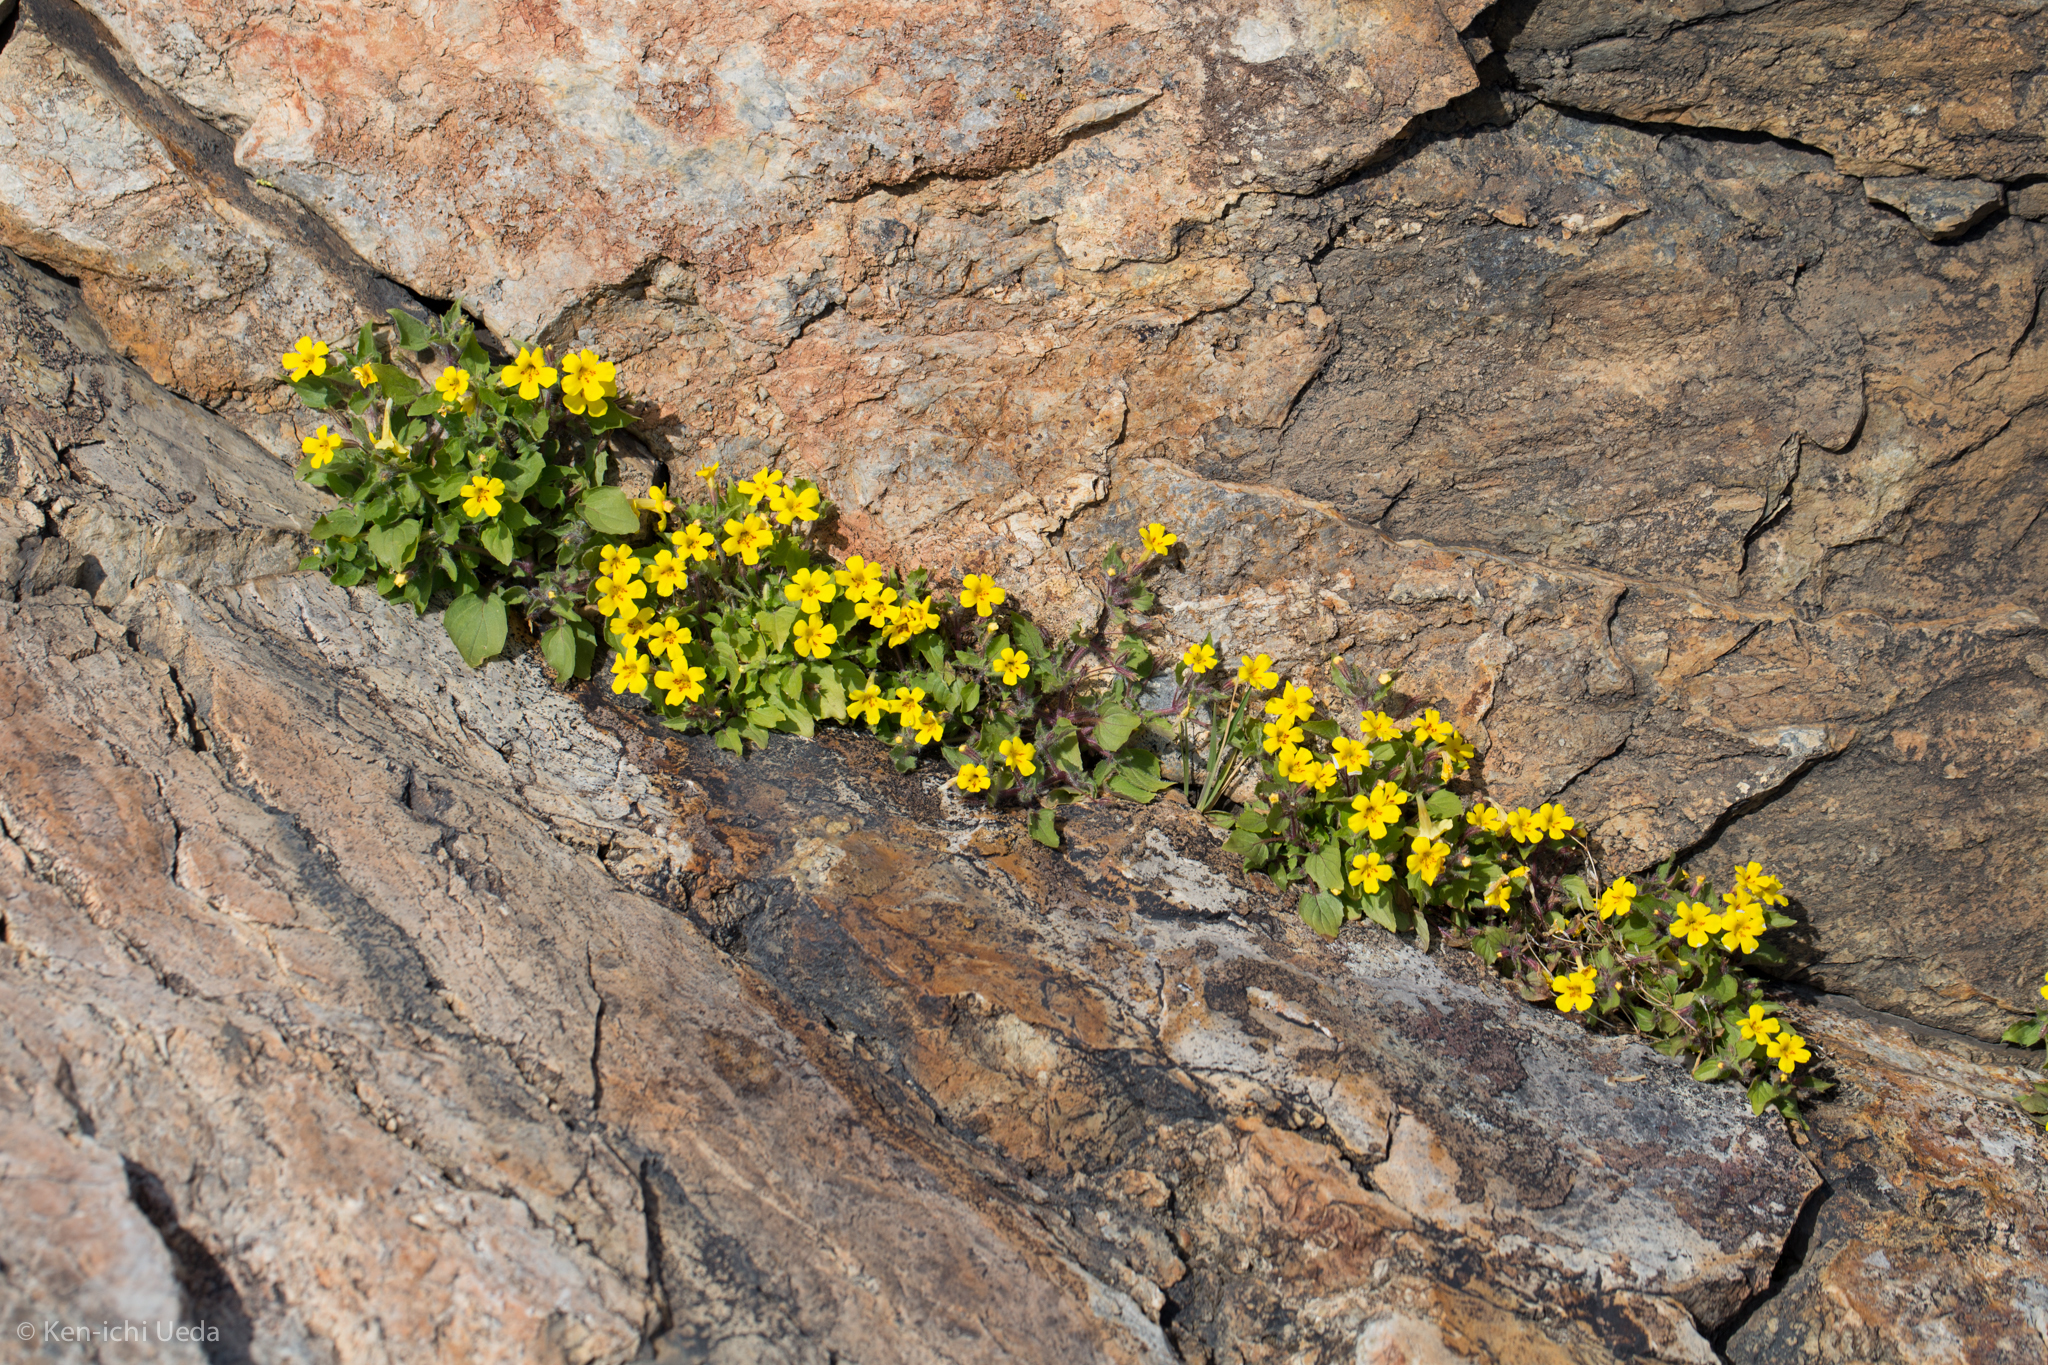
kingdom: Plantae
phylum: Tracheophyta
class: Magnoliopsida
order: Lamiales
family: Phrymaceae
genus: Erythranthe
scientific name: Erythranthe geniculata
